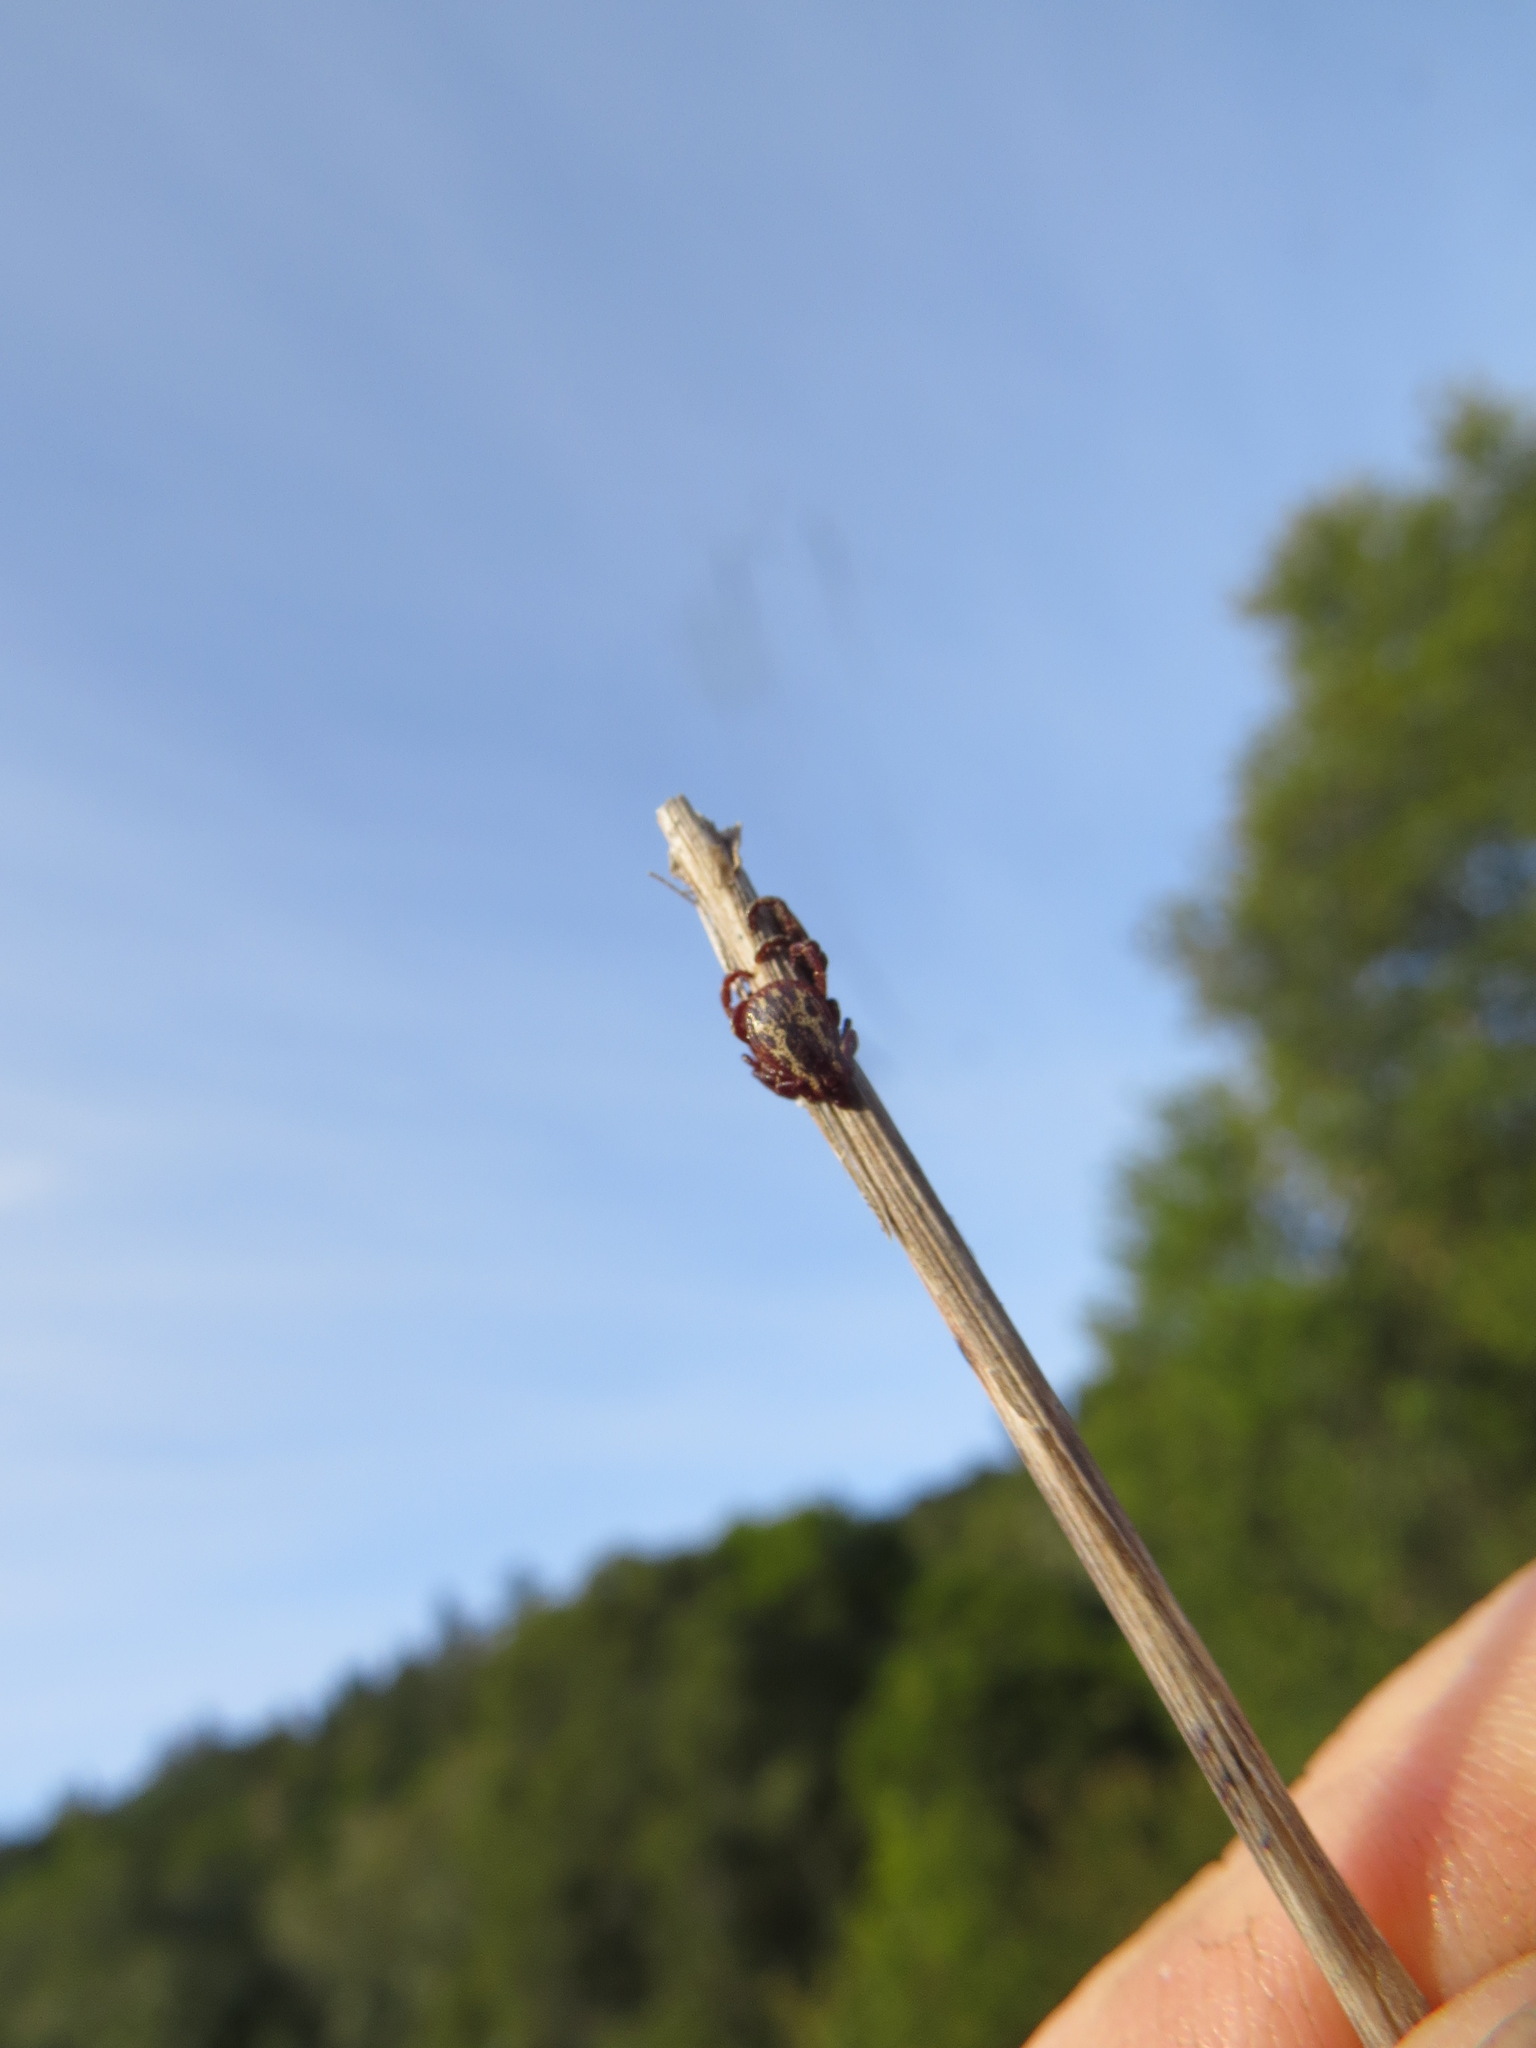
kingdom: Animalia
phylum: Arthropoda
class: Arachnida
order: Ixodida
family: Ixodidae
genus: Dermacentor
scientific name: Dermacentor variabilis
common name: American dog tick
